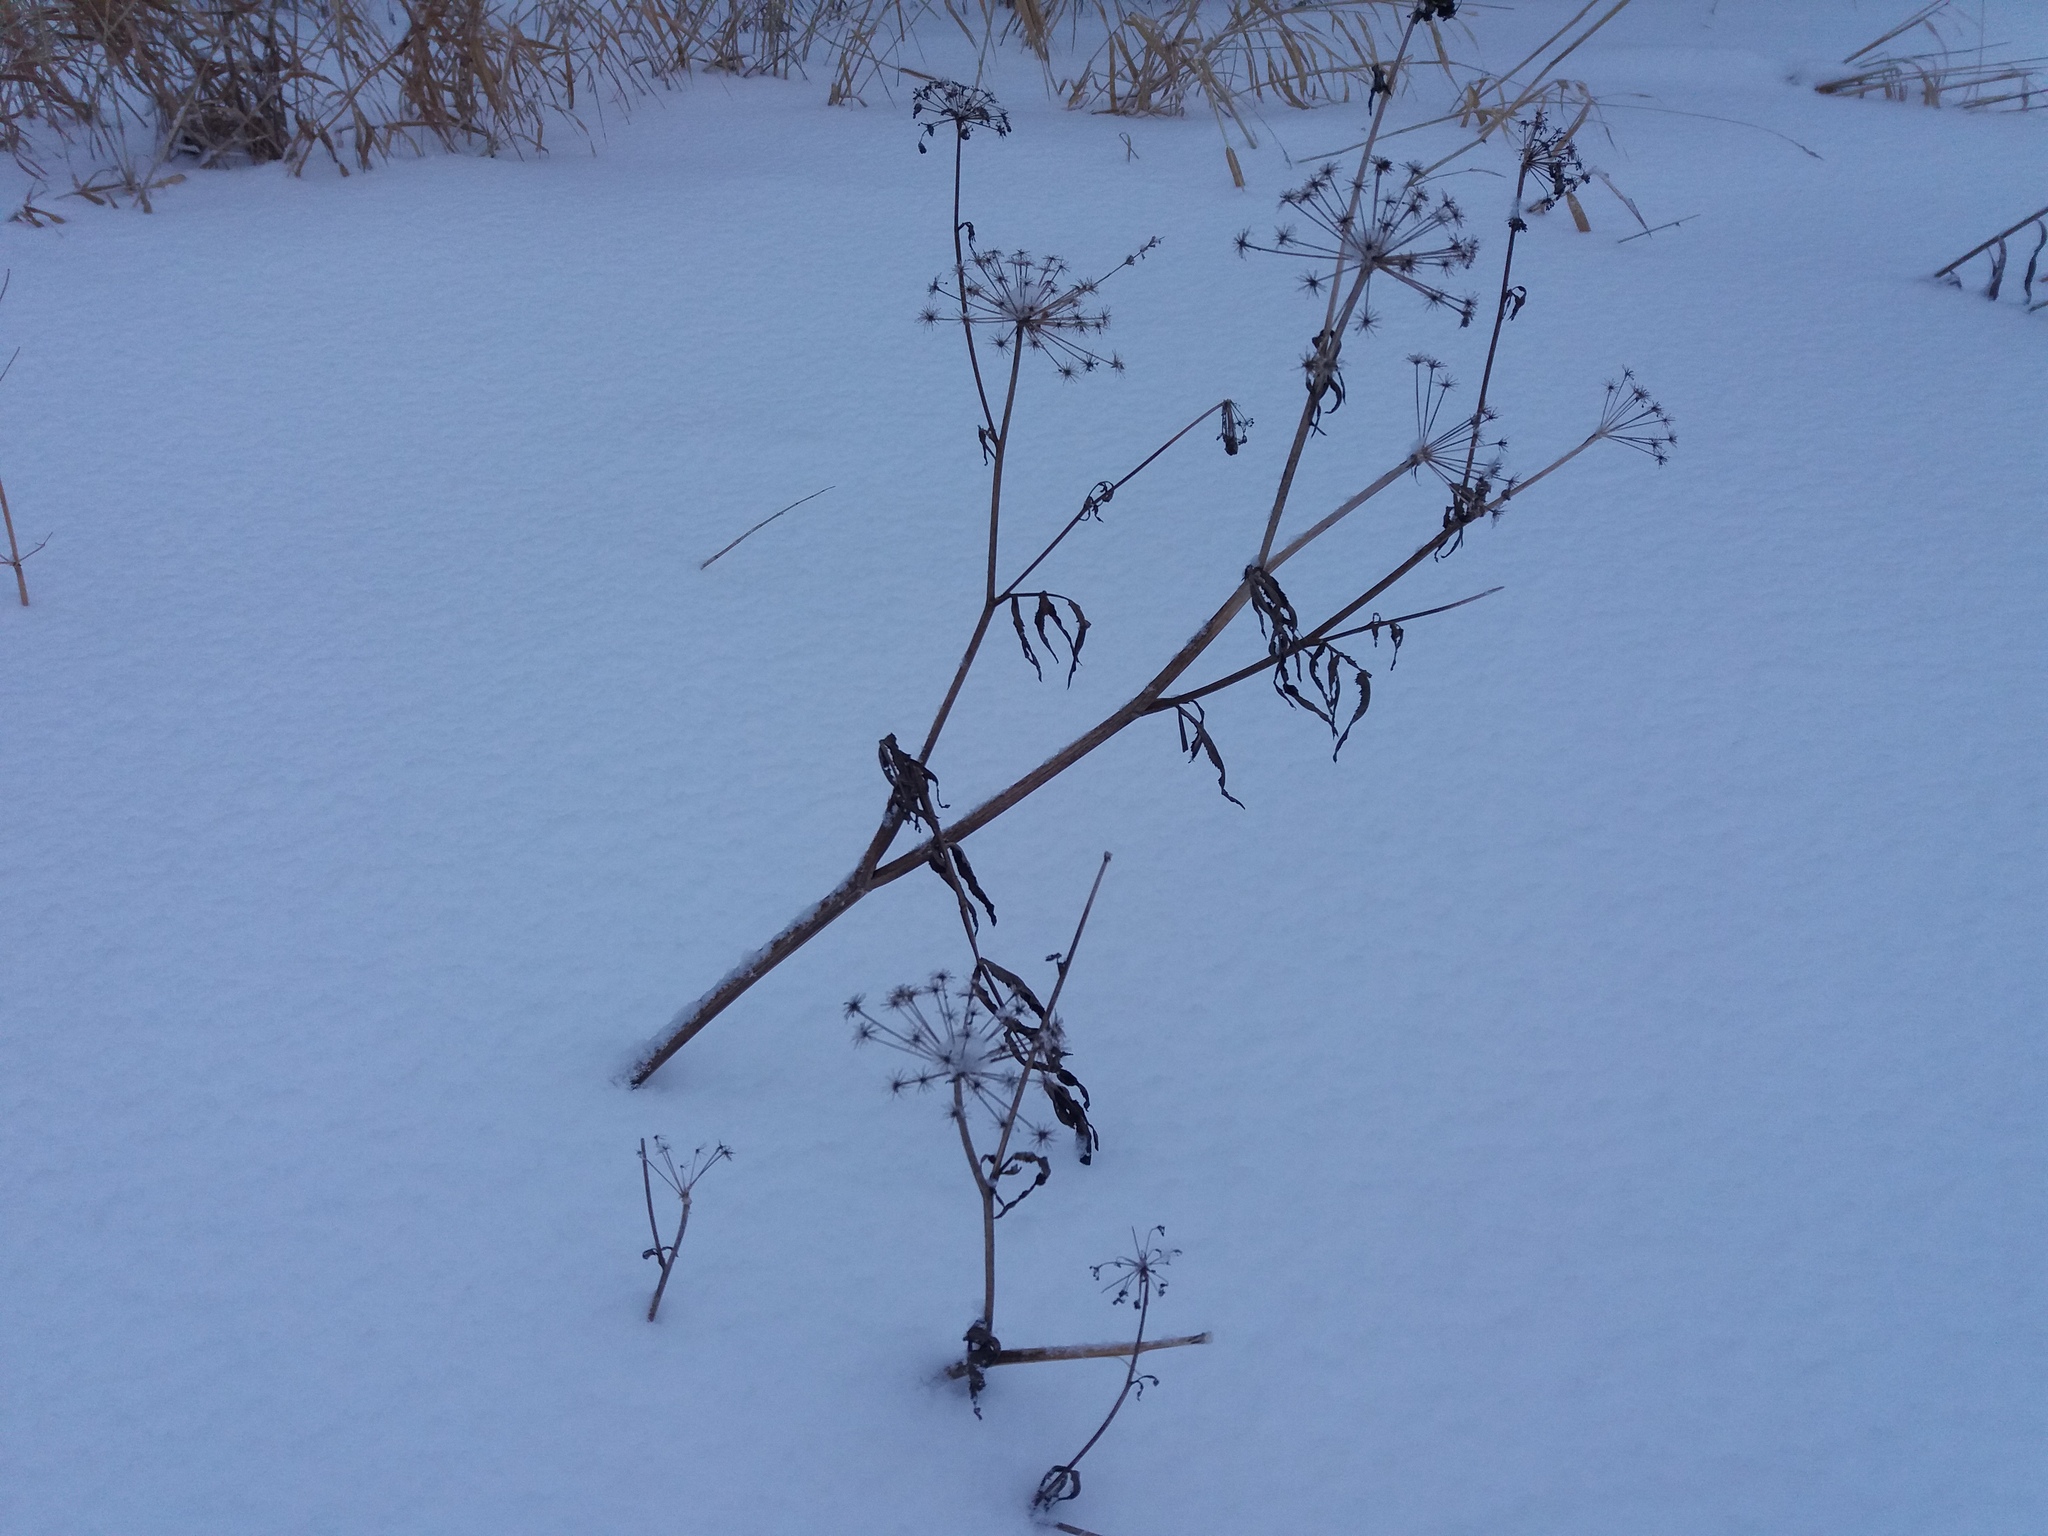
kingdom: Plantae
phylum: Tracheophyta
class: Magnoliopsida
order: Apiales
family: Apiaceae
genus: Sium
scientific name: Sium latifolium
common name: Greater water-parsnip
